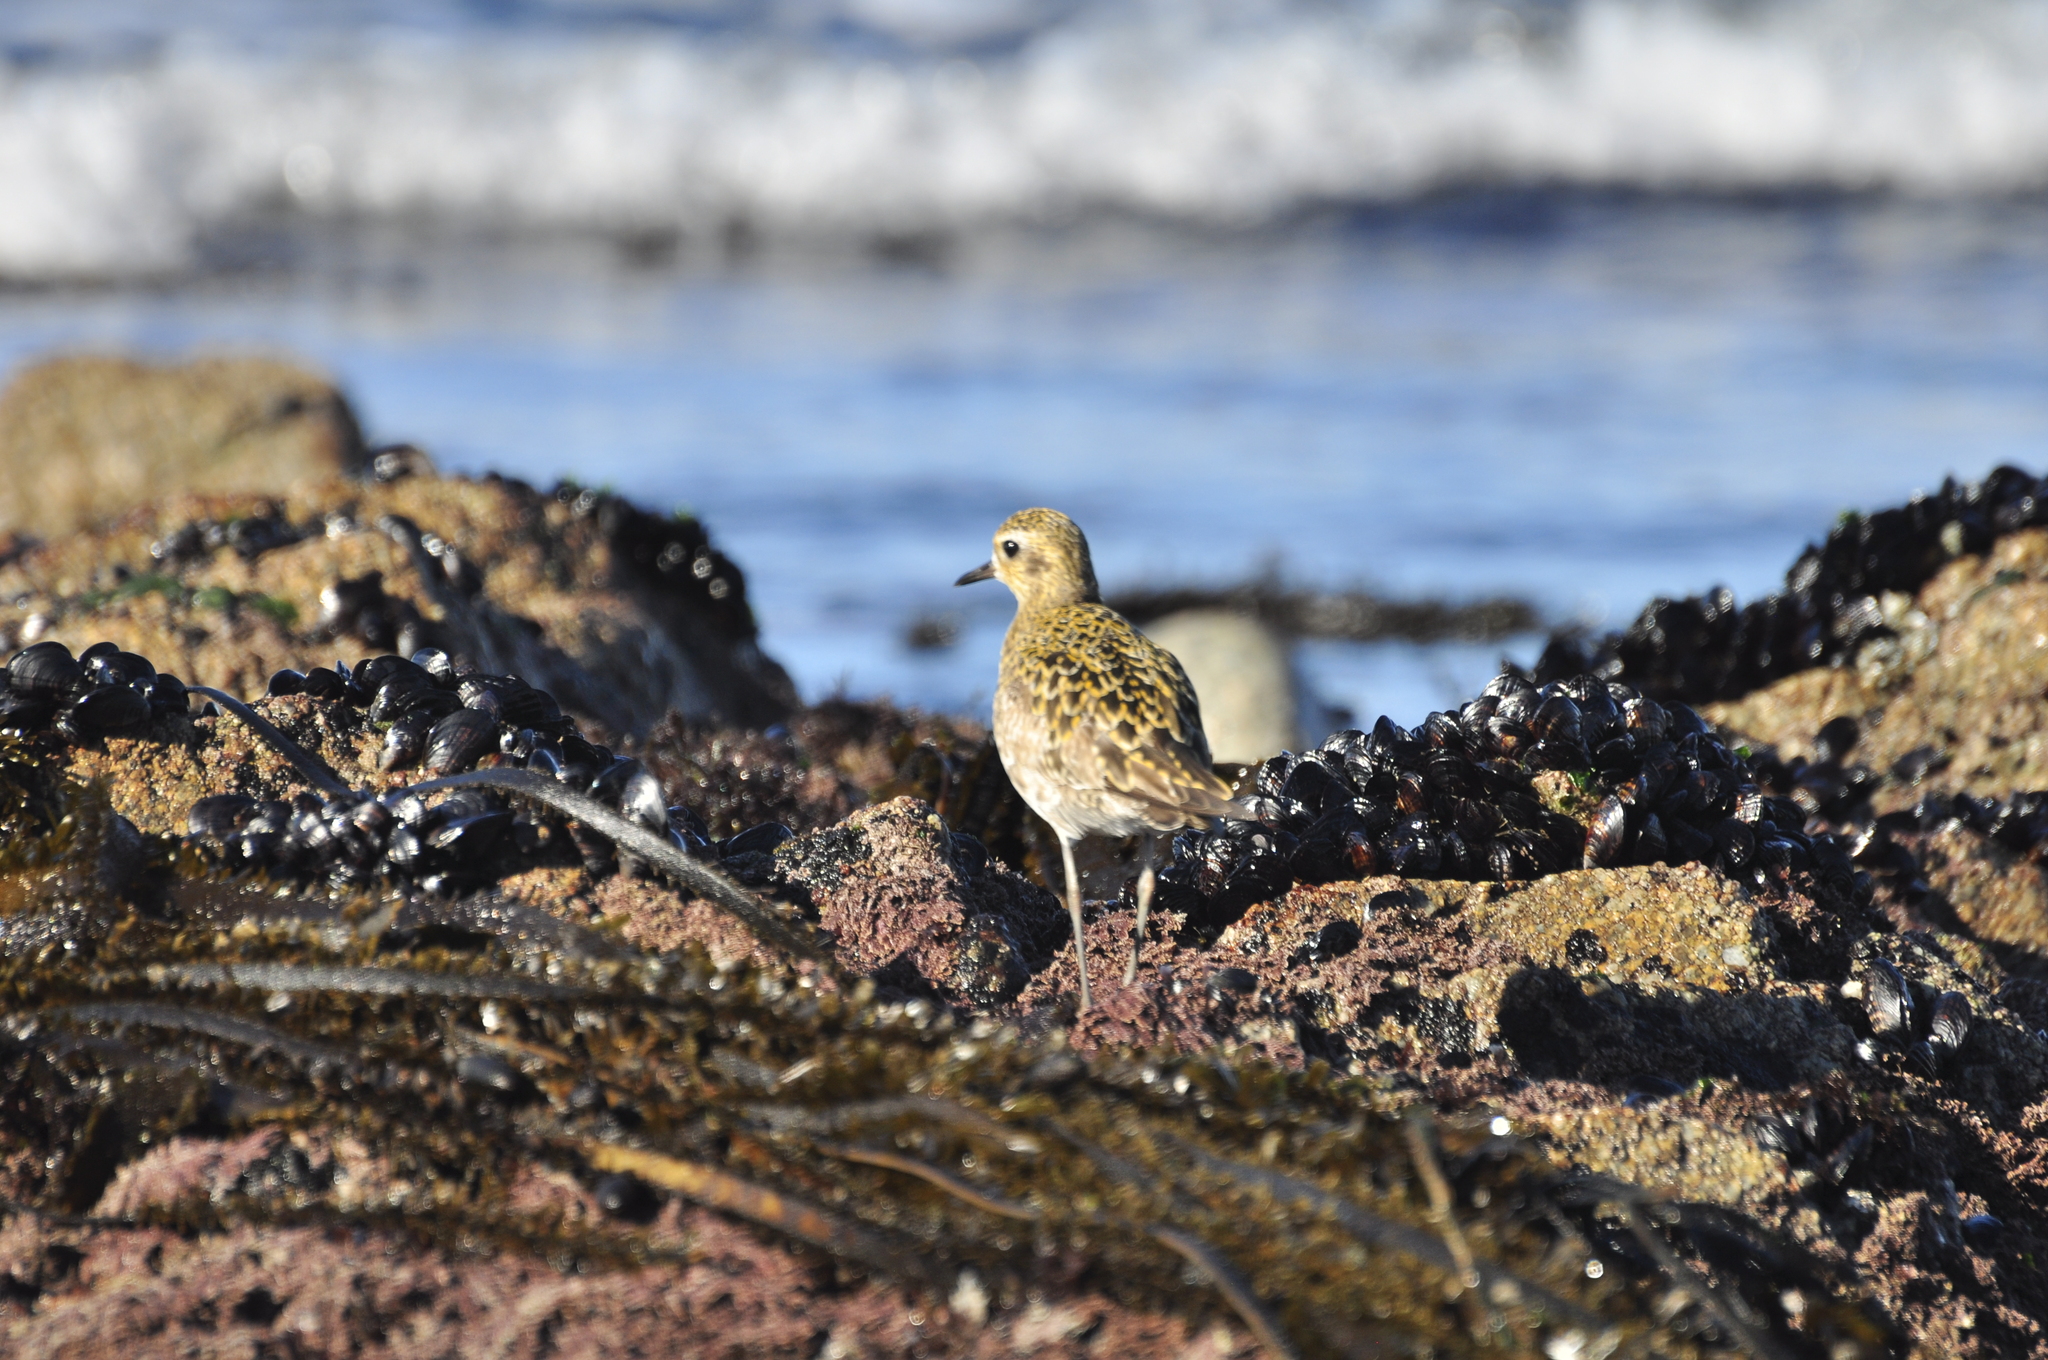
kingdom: Animalia
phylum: Chordata
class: Aves
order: Charadriiformes
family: Charadriidae
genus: Pluvialis
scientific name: Pluvialis fulva
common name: Pacific golden plover
